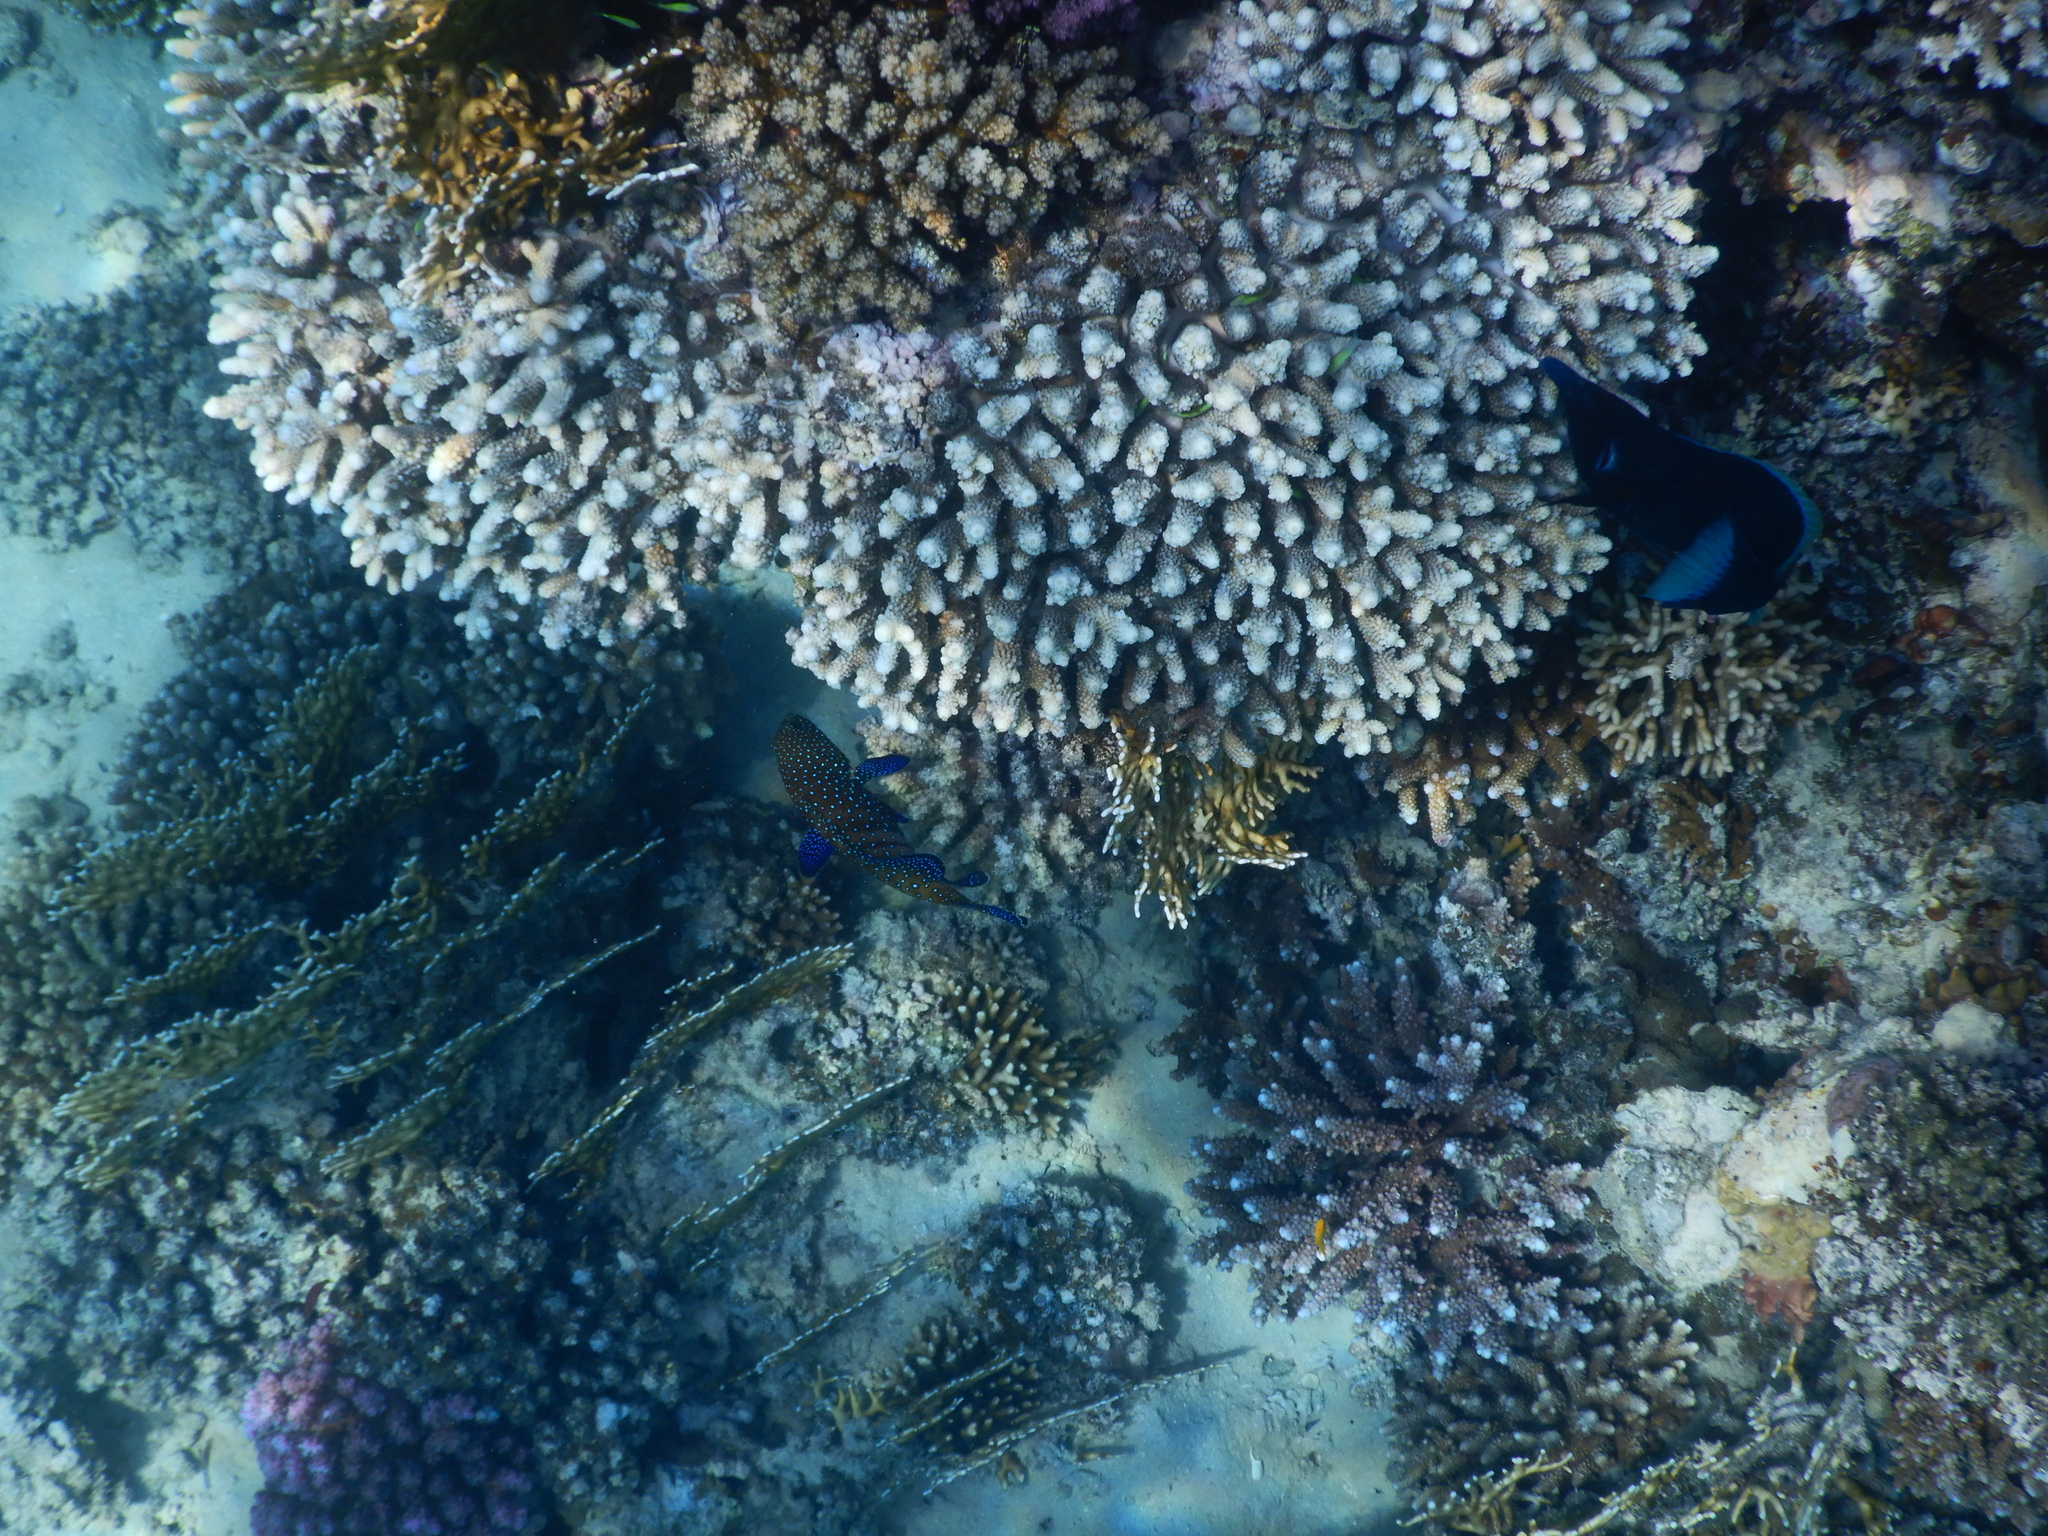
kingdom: Animalia
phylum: Chordata
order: Perciformes
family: Serranidae
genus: Cephalopholis
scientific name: Cephalopholis argus
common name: Peacock grouper
